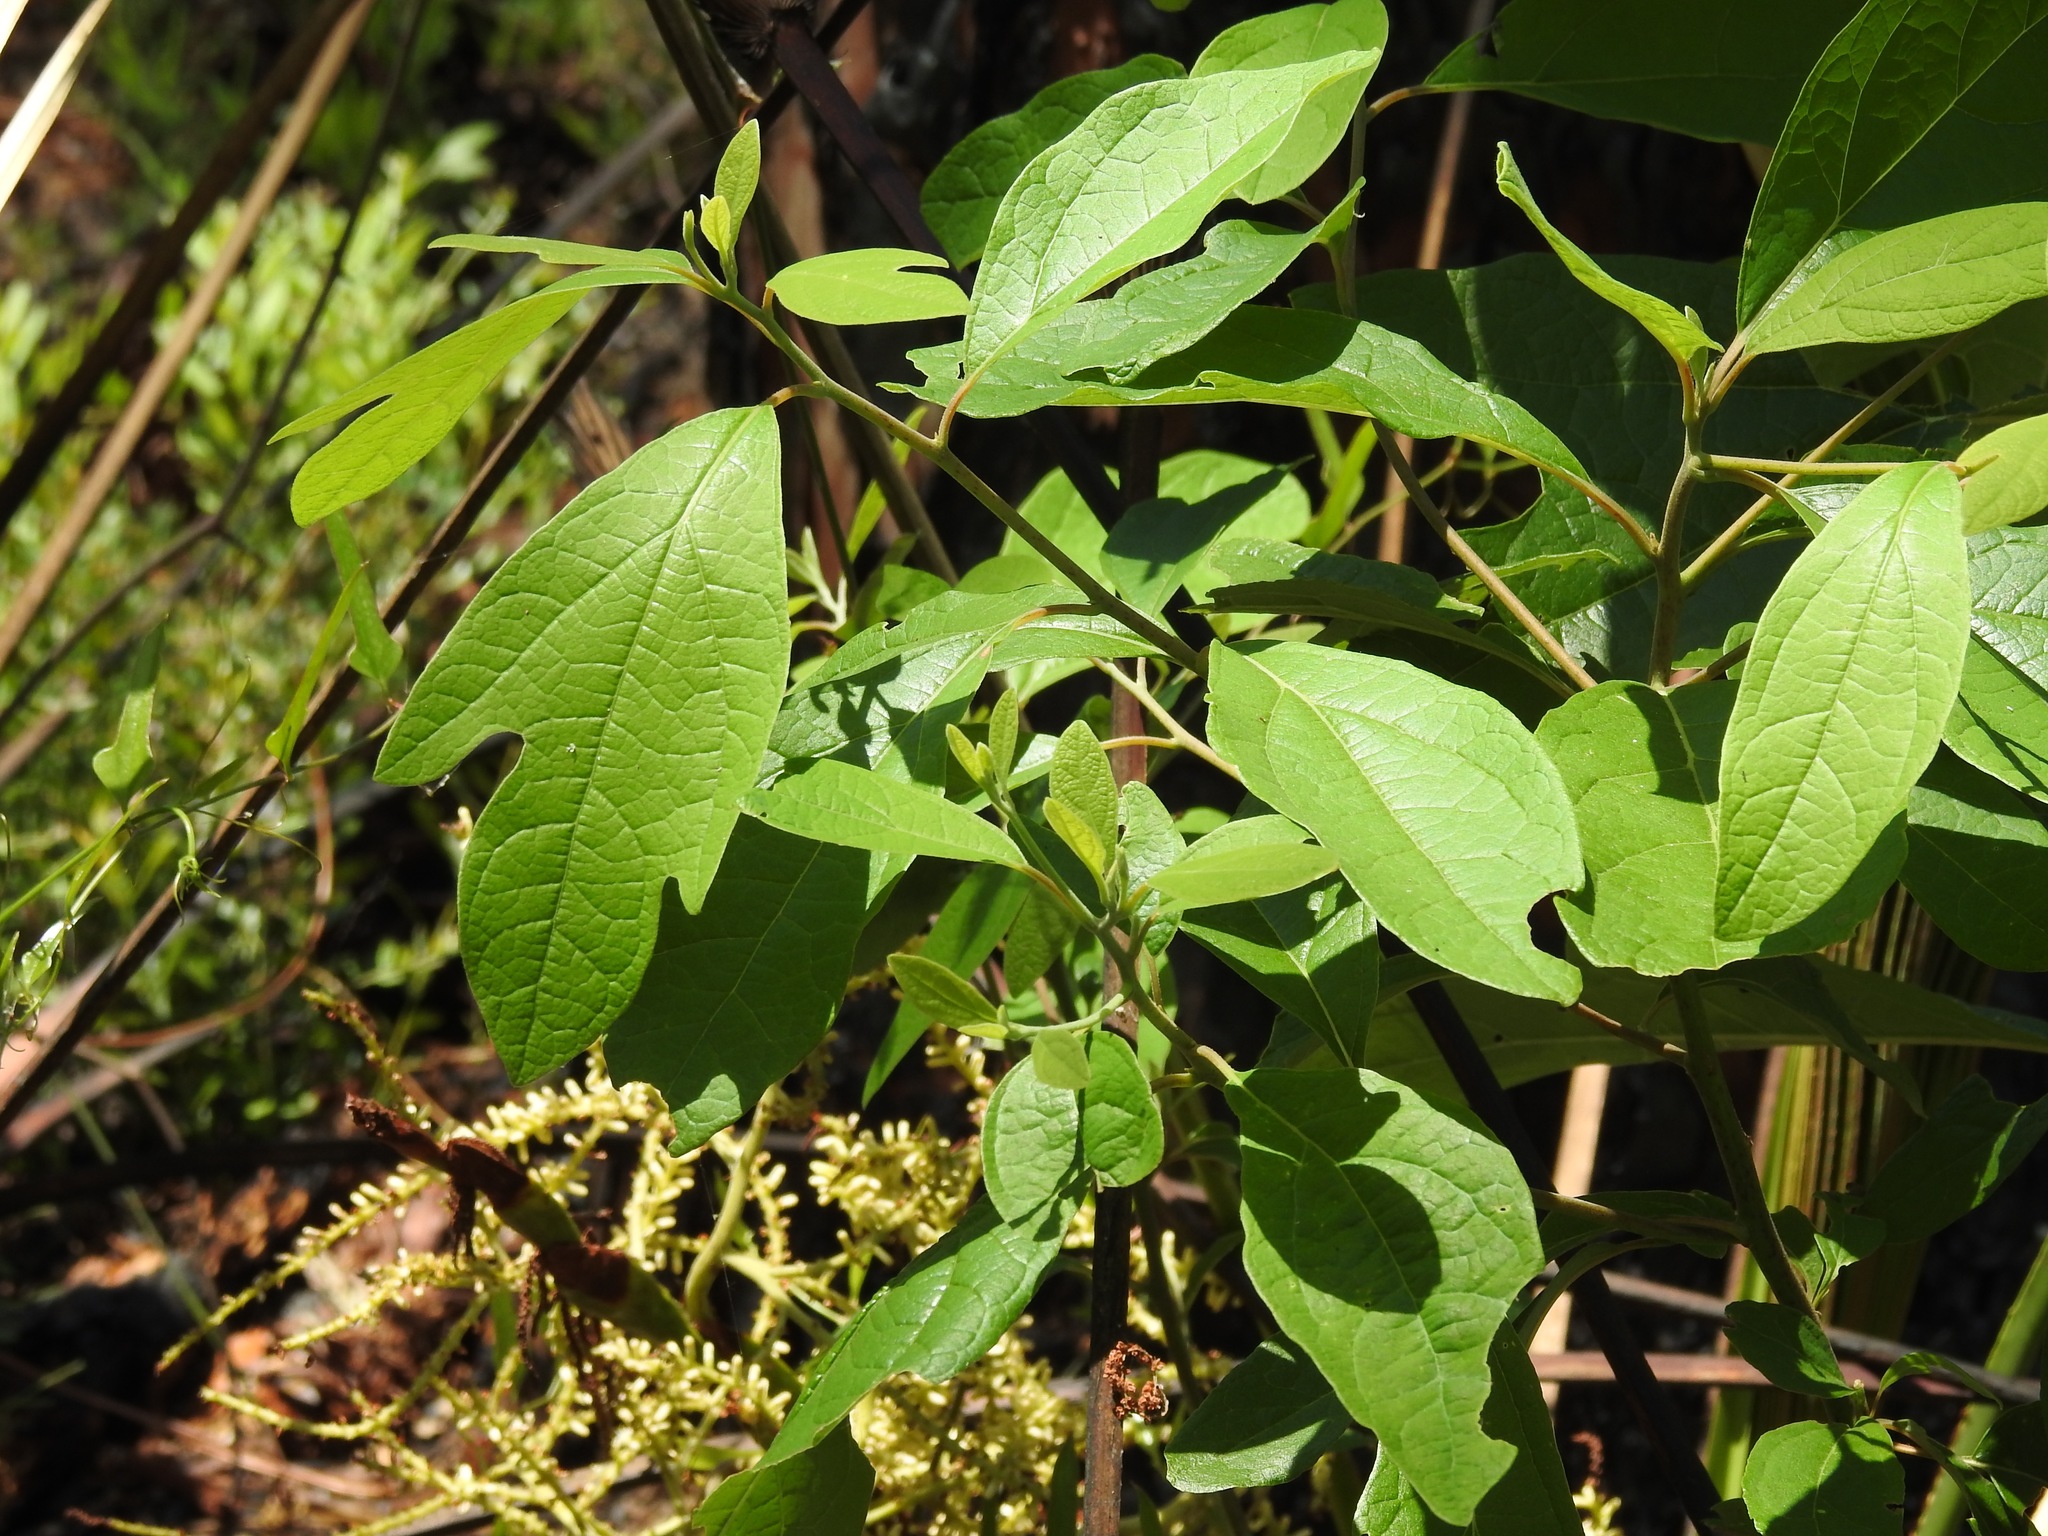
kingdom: Plantae
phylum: Tracheophyta
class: Magnoliopsida
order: Laurales
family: Lauraceae
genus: Sassafras
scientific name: Sassafras albidum
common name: Sassafras
